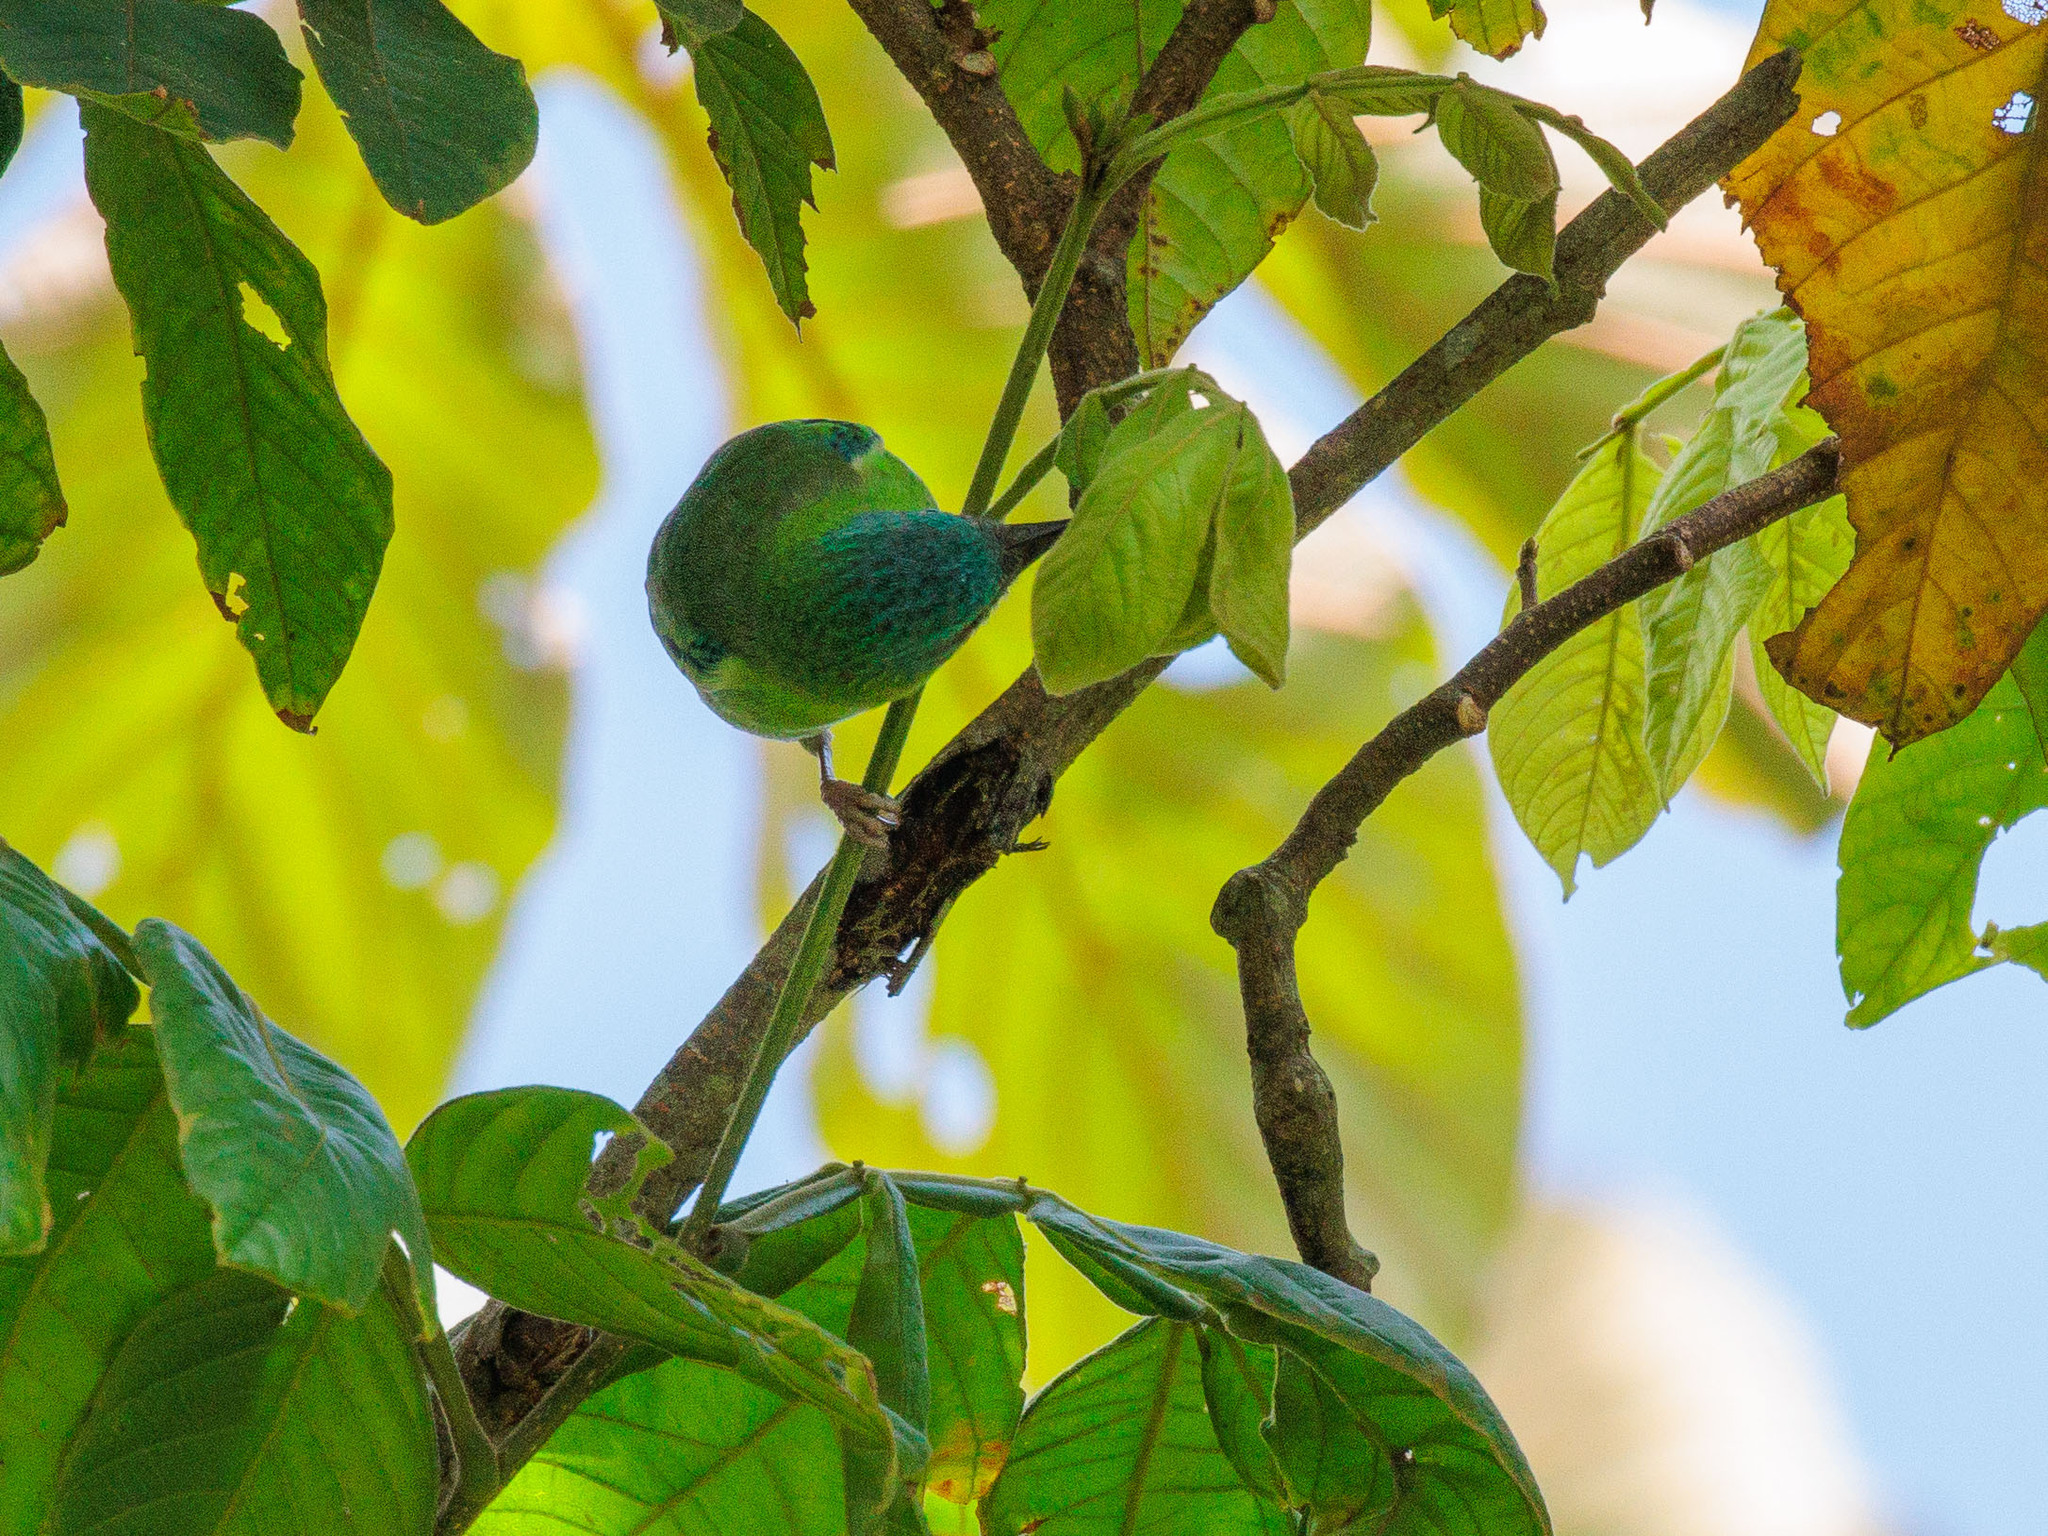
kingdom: Animalia
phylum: Chordata
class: Aves
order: Passeriformes
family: Thraupidae
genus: Dacnis
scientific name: Dacnis cayana
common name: Blue dacnis
